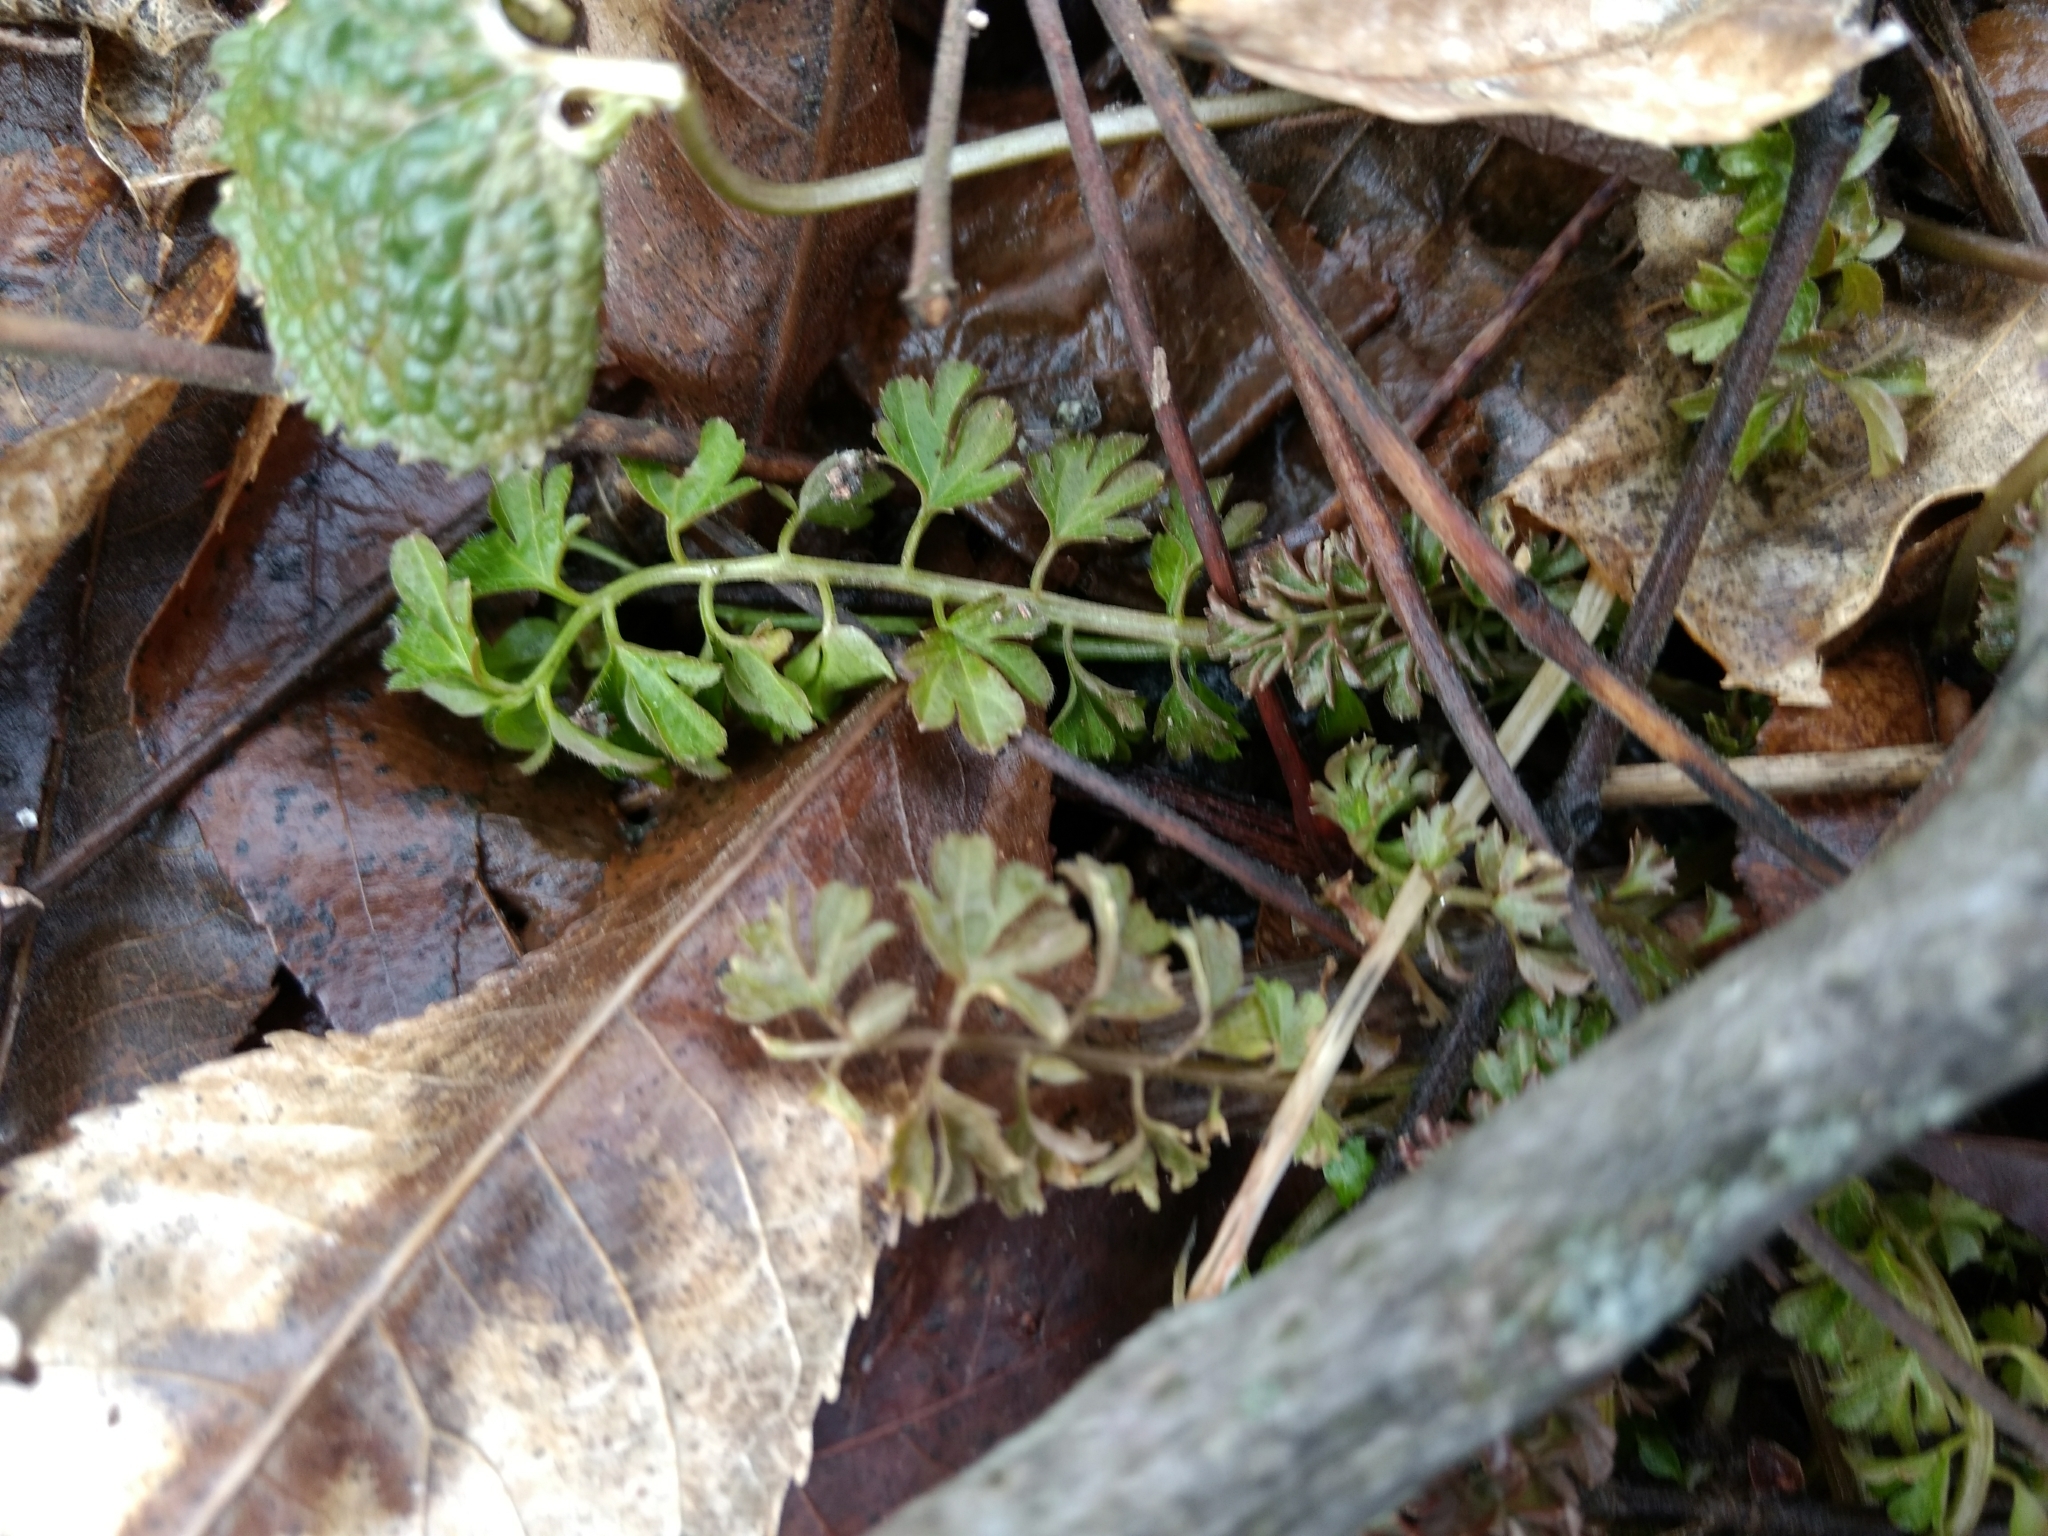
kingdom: Plantae
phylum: Tracheophyta
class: Magnoliopsida
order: Brassicales
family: Brassicaceae
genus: Cardamine
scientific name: Cardamine impatiens
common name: Narrow-leaved bitter-cress
